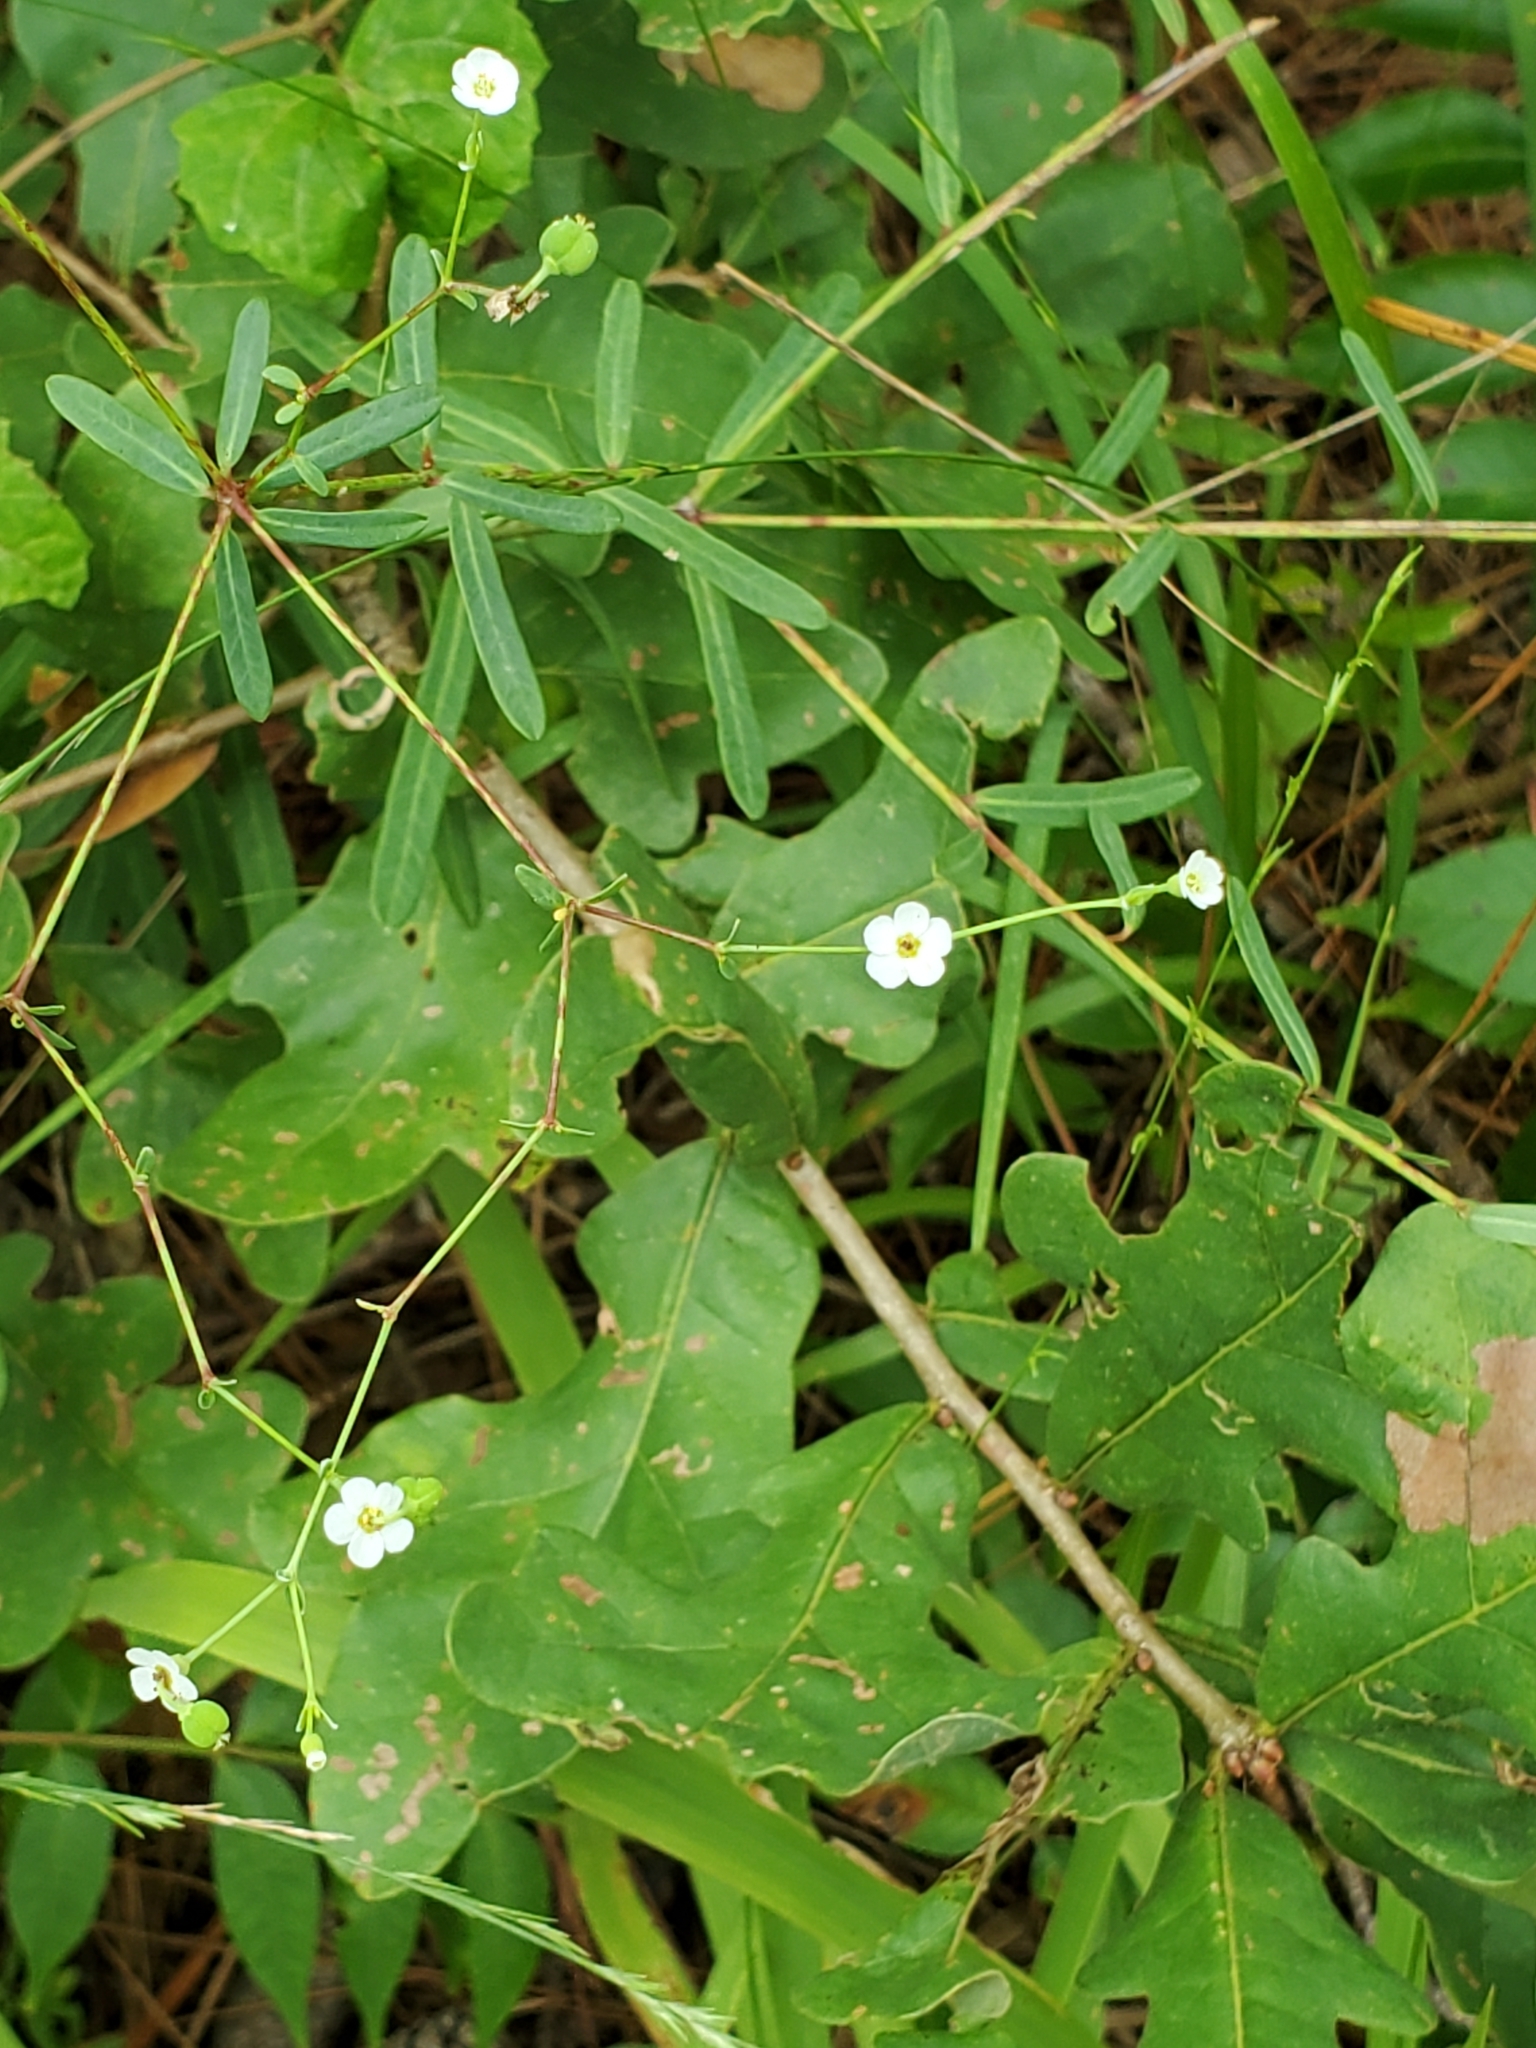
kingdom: Plantae
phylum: Tracheophyta
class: Magnoliopsida
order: Malpighiales
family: Euphorbiaceae
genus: Euphorbia
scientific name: Euphorbia corollata
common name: Flowering spurge
